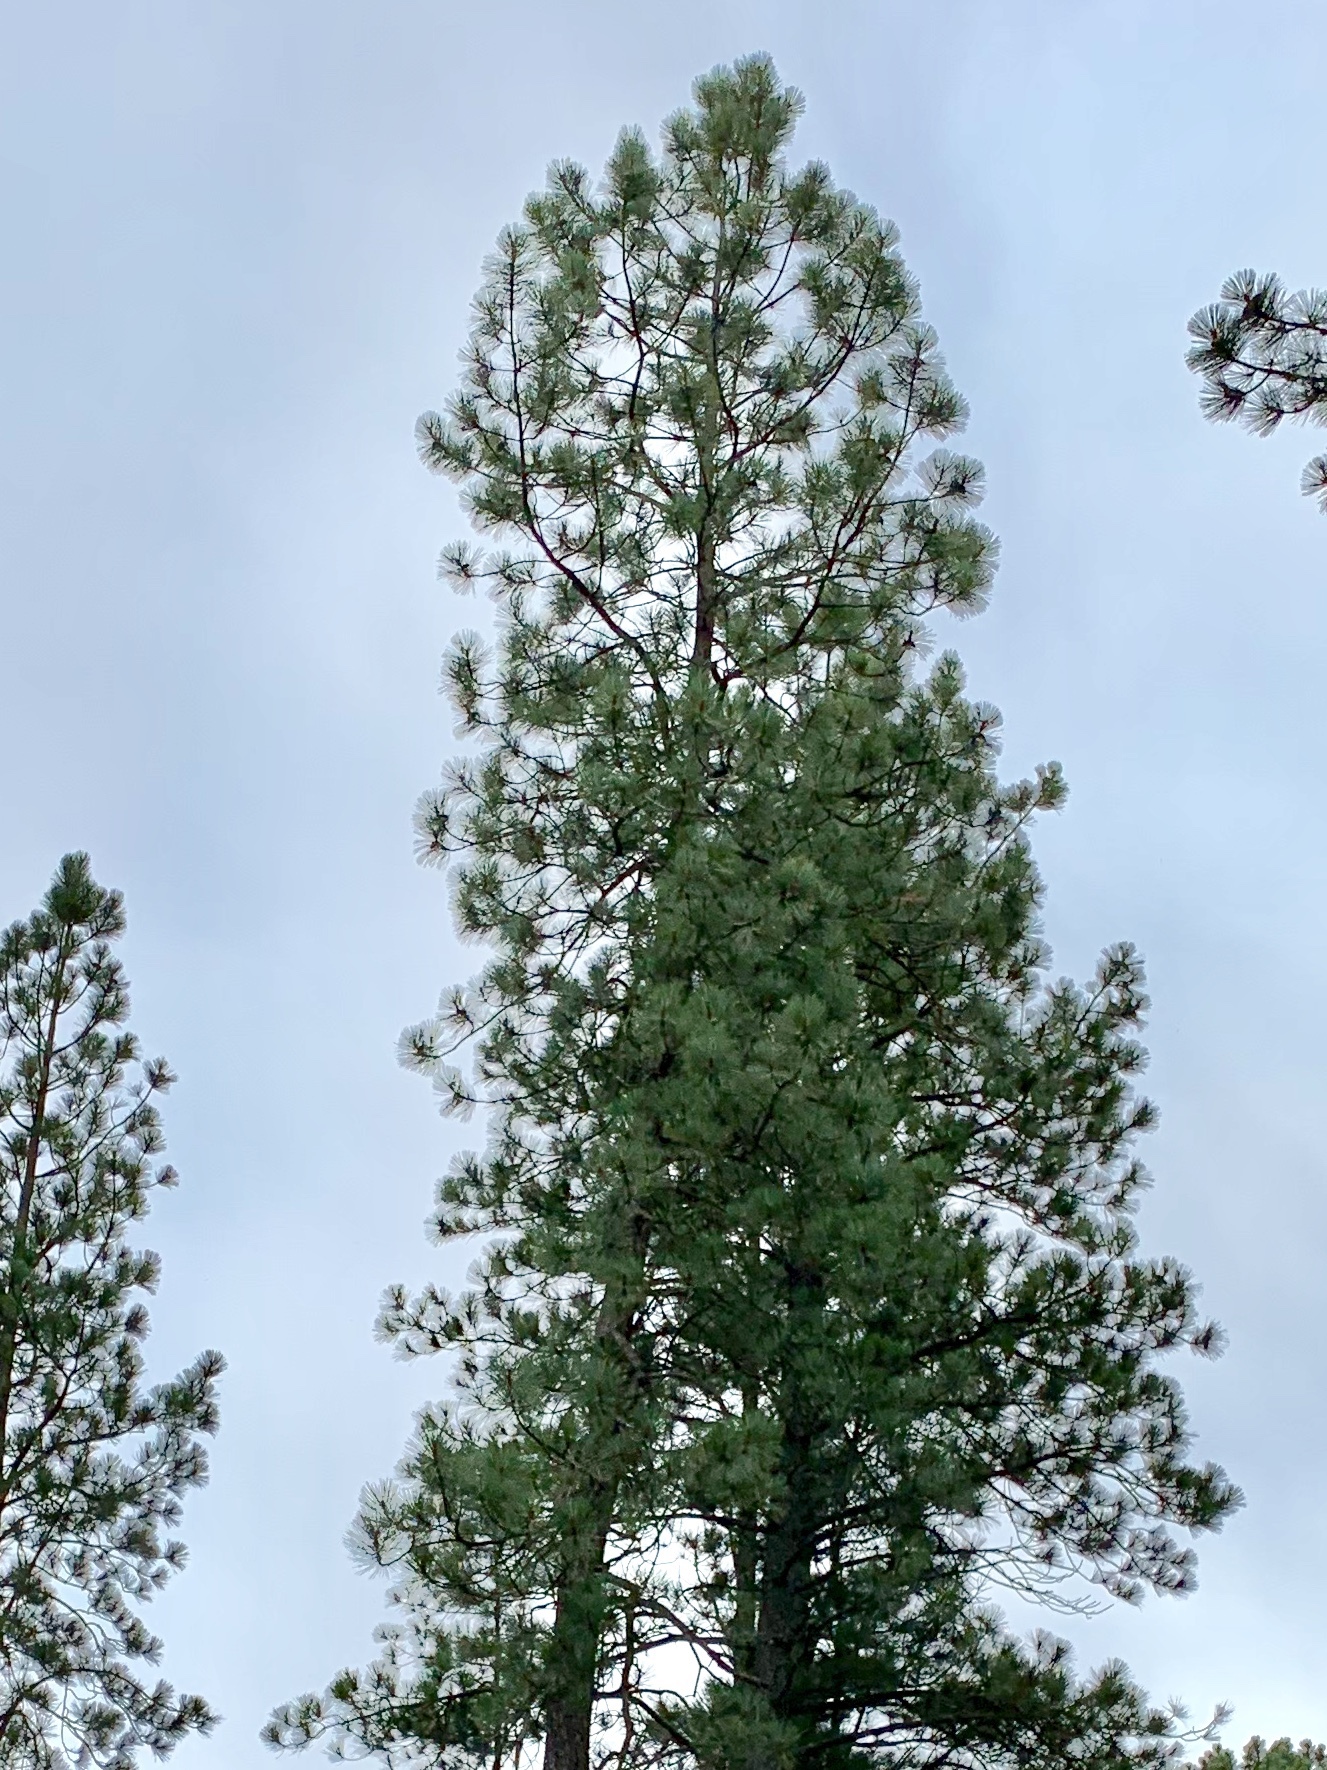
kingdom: Plantae
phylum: Tracheophyta
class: Pinopsida
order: Pinales
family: Pinaceae
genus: Pinus
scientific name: Pinus ponderosa
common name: Western yellow-pine
